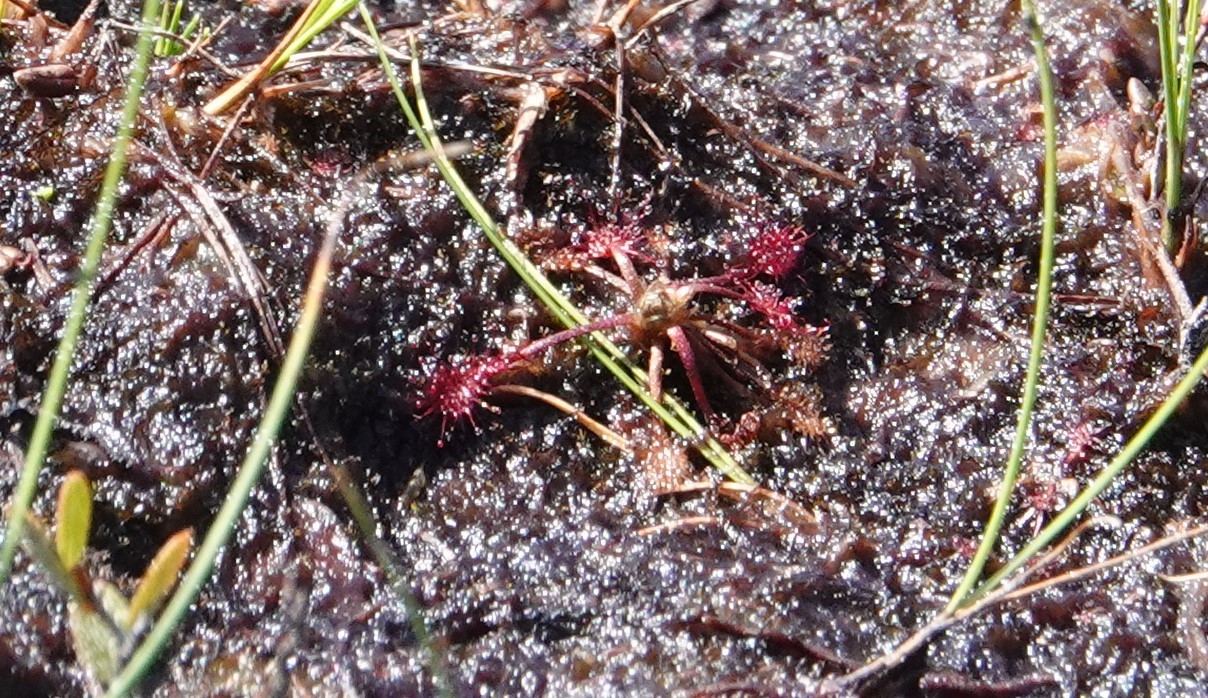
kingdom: Plantae
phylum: Tracheophyta
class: Magnoliopsida
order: Caryophyllales
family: Droseraceae
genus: Drosera
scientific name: Drosera intermedia
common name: Oblong-leaved sundew
